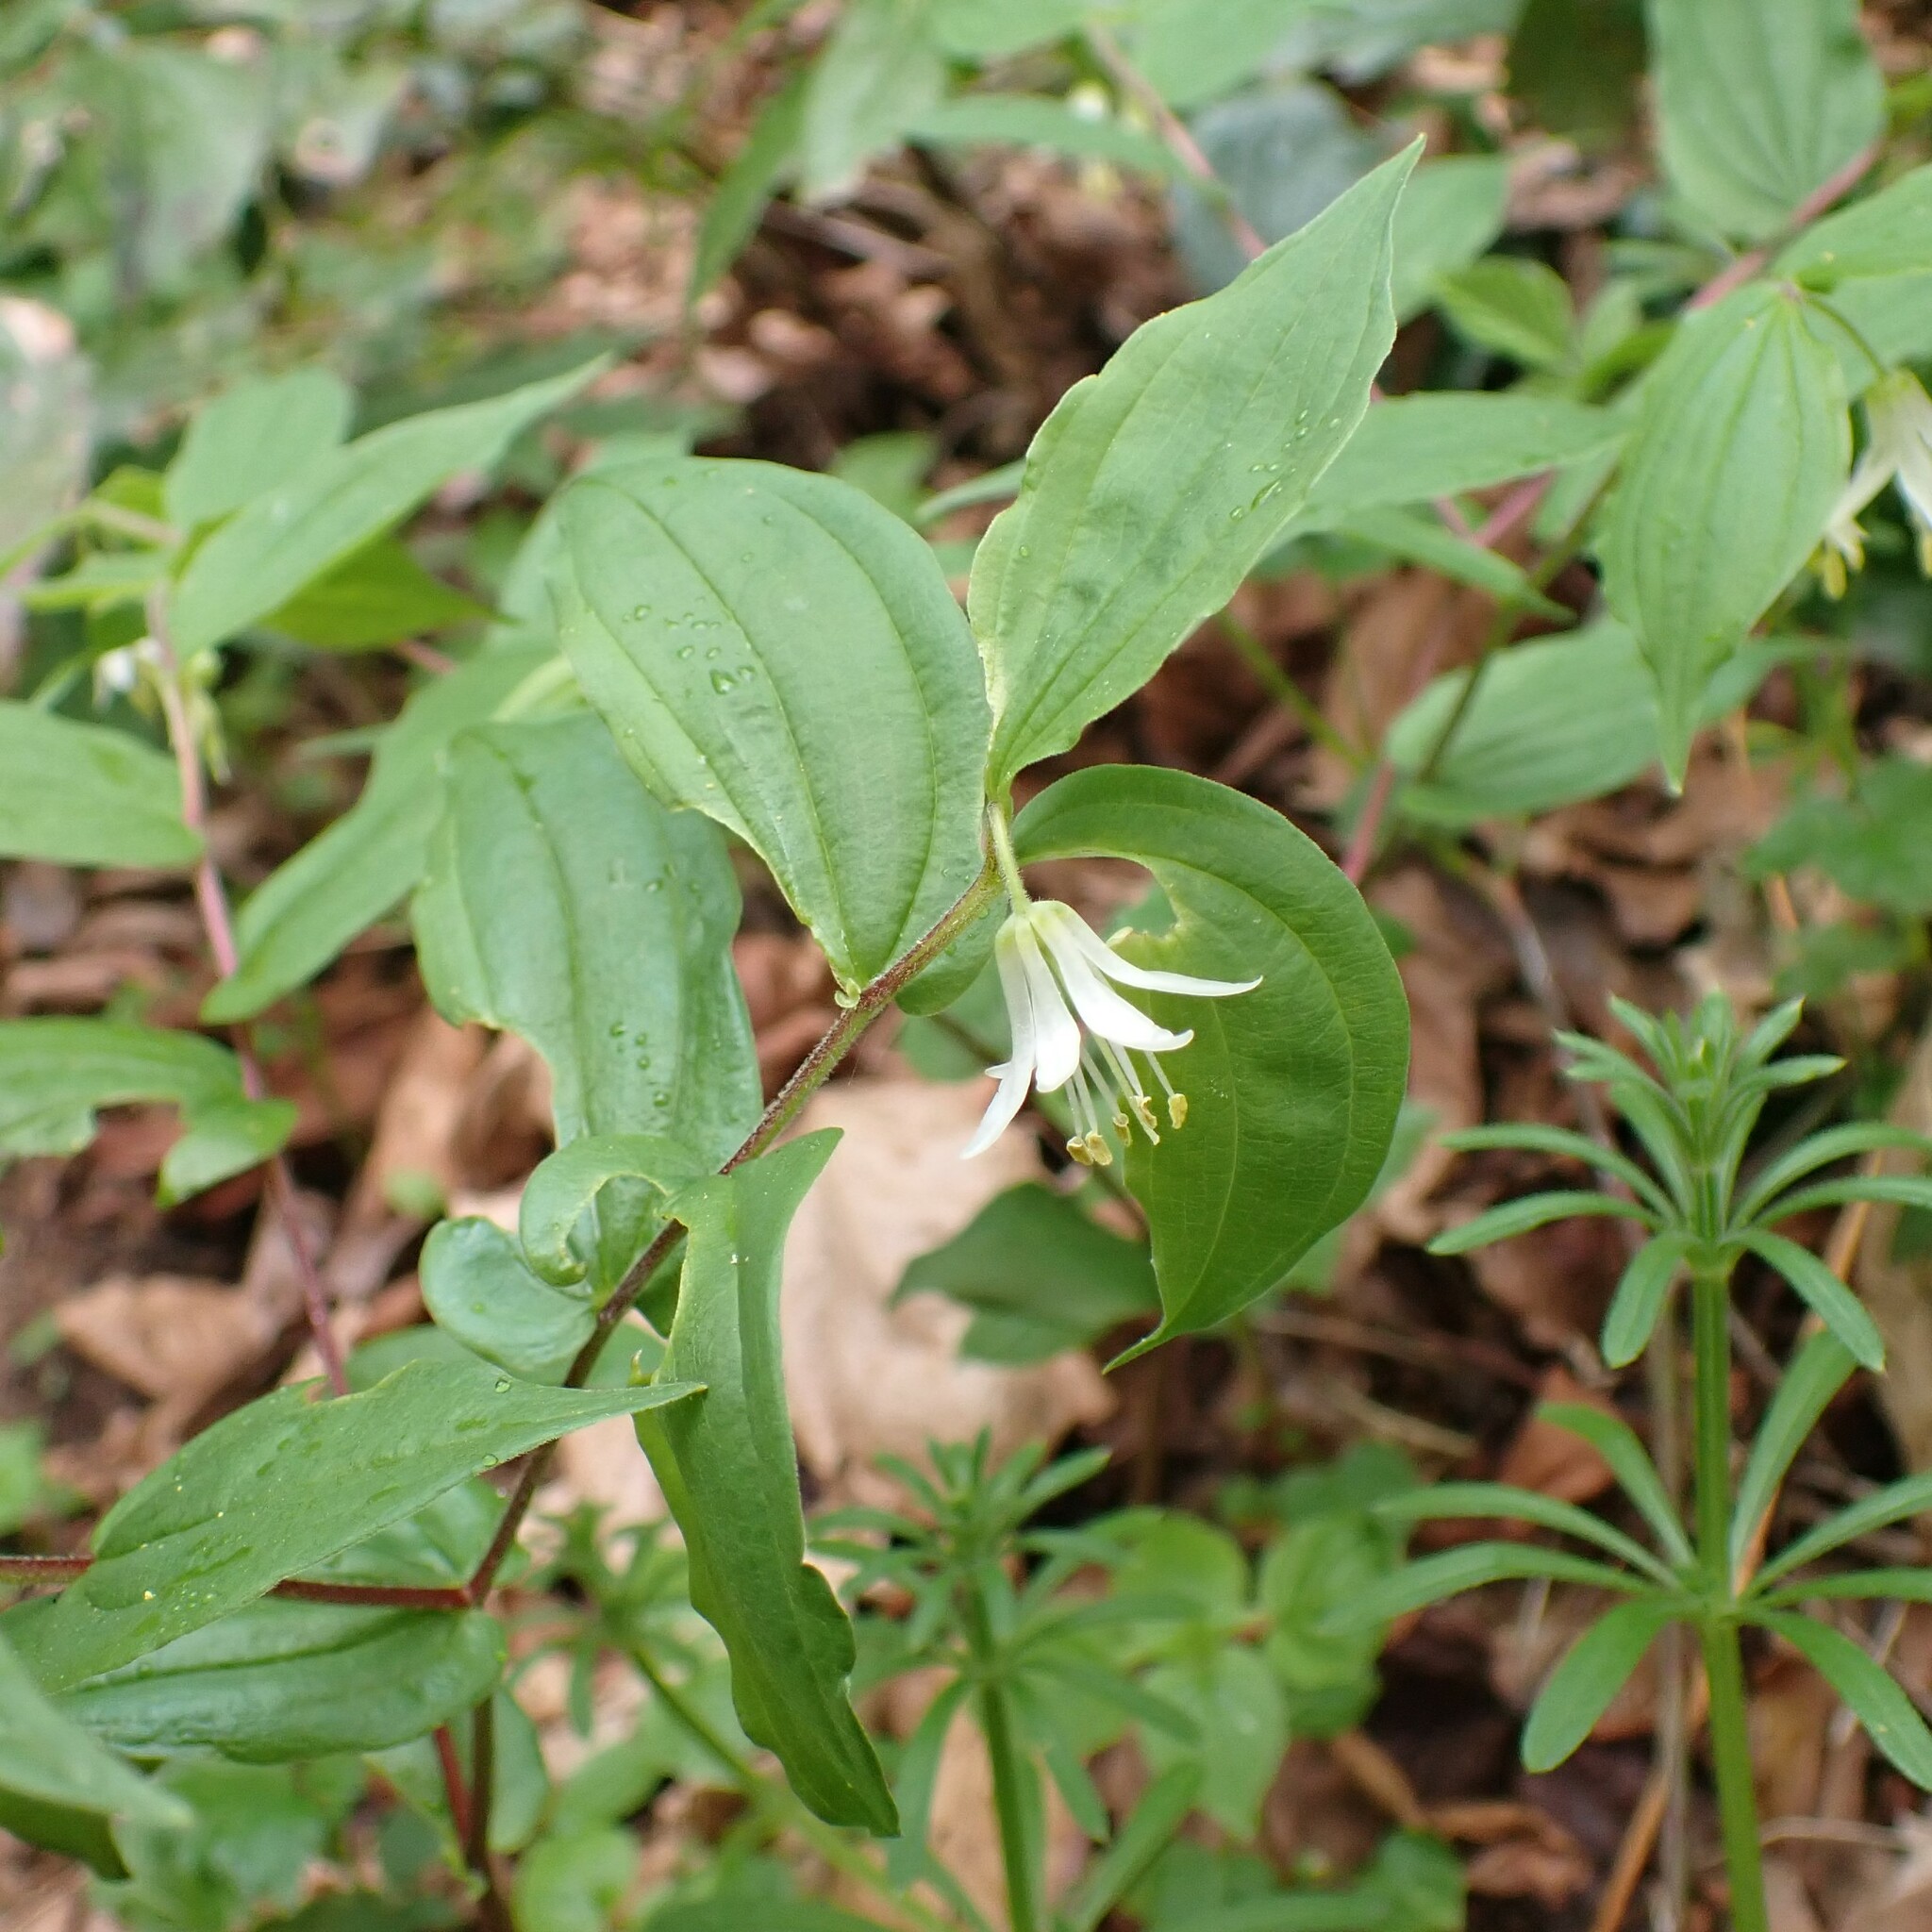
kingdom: Plantae
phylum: Tracheophyta
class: Liliopsida
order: Liliales
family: Liliaceae
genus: Prosartes
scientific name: Prosartes hookeri
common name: Fairy-bells
